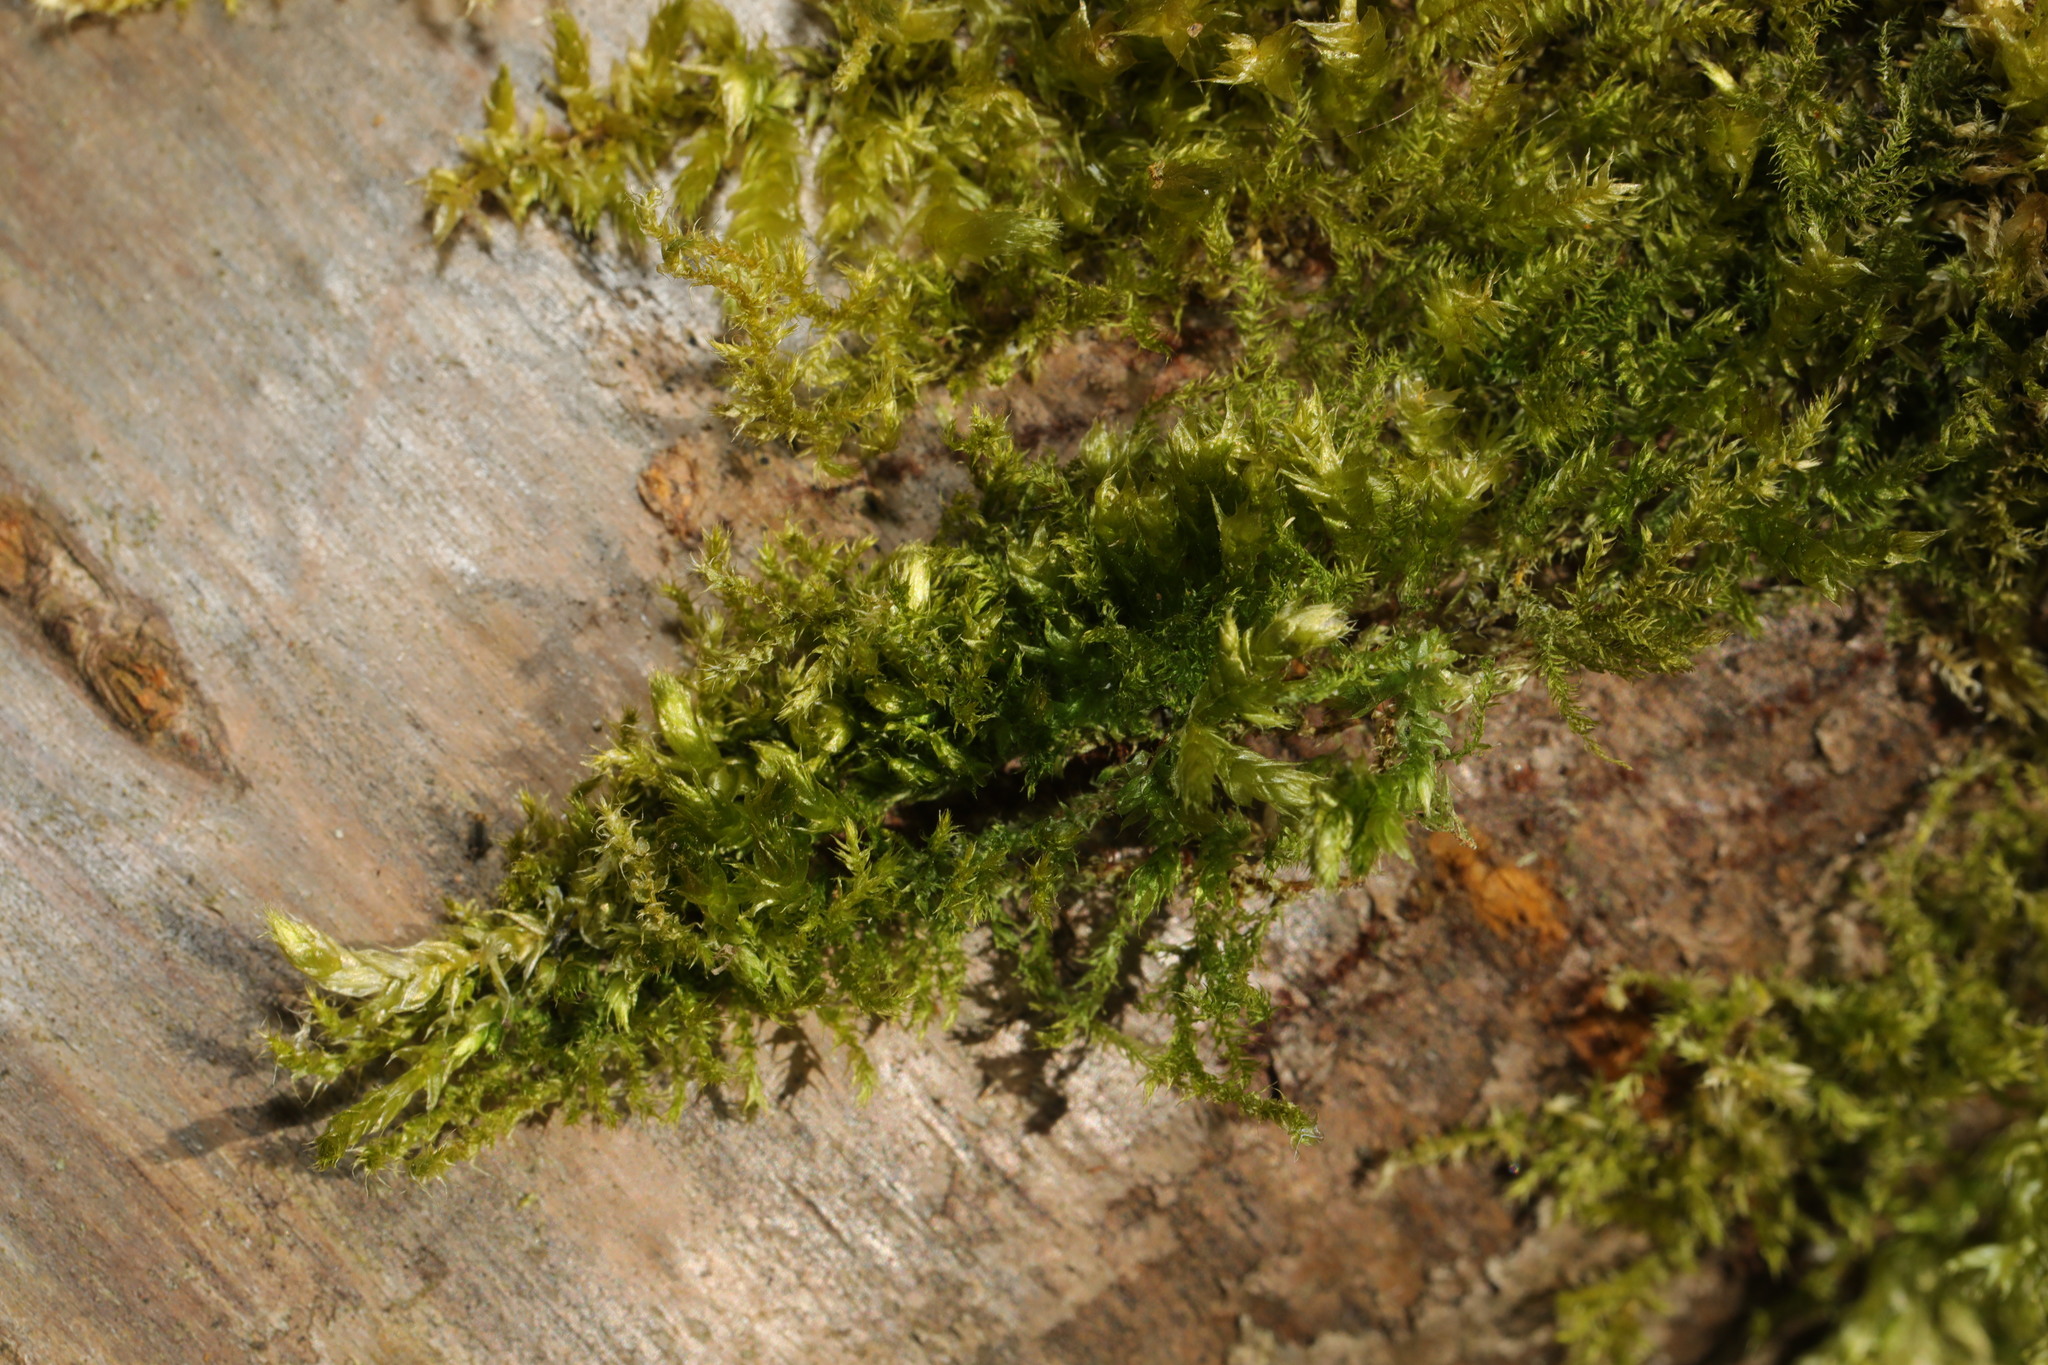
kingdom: Plantae
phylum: Bryophyta
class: Bryopsida
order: Hypnales
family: Brachytheciaceae
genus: Brachythecium
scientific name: Brachythecium rutabulum
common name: Rough-stalked feather-moss
